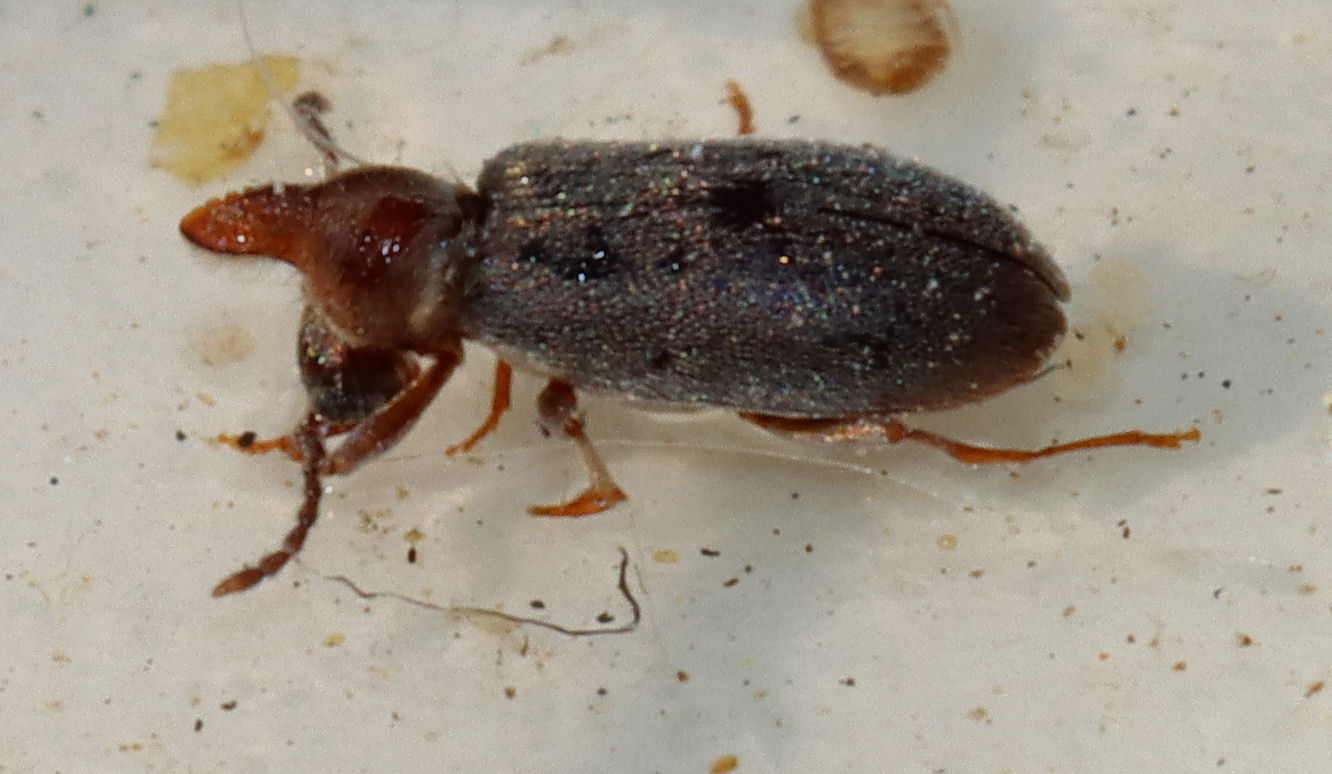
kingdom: Animalia
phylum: Arthropoda
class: Insecta
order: Coleoptera
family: Anthicidae
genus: Notoxus
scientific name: Notoxus murinipennis
